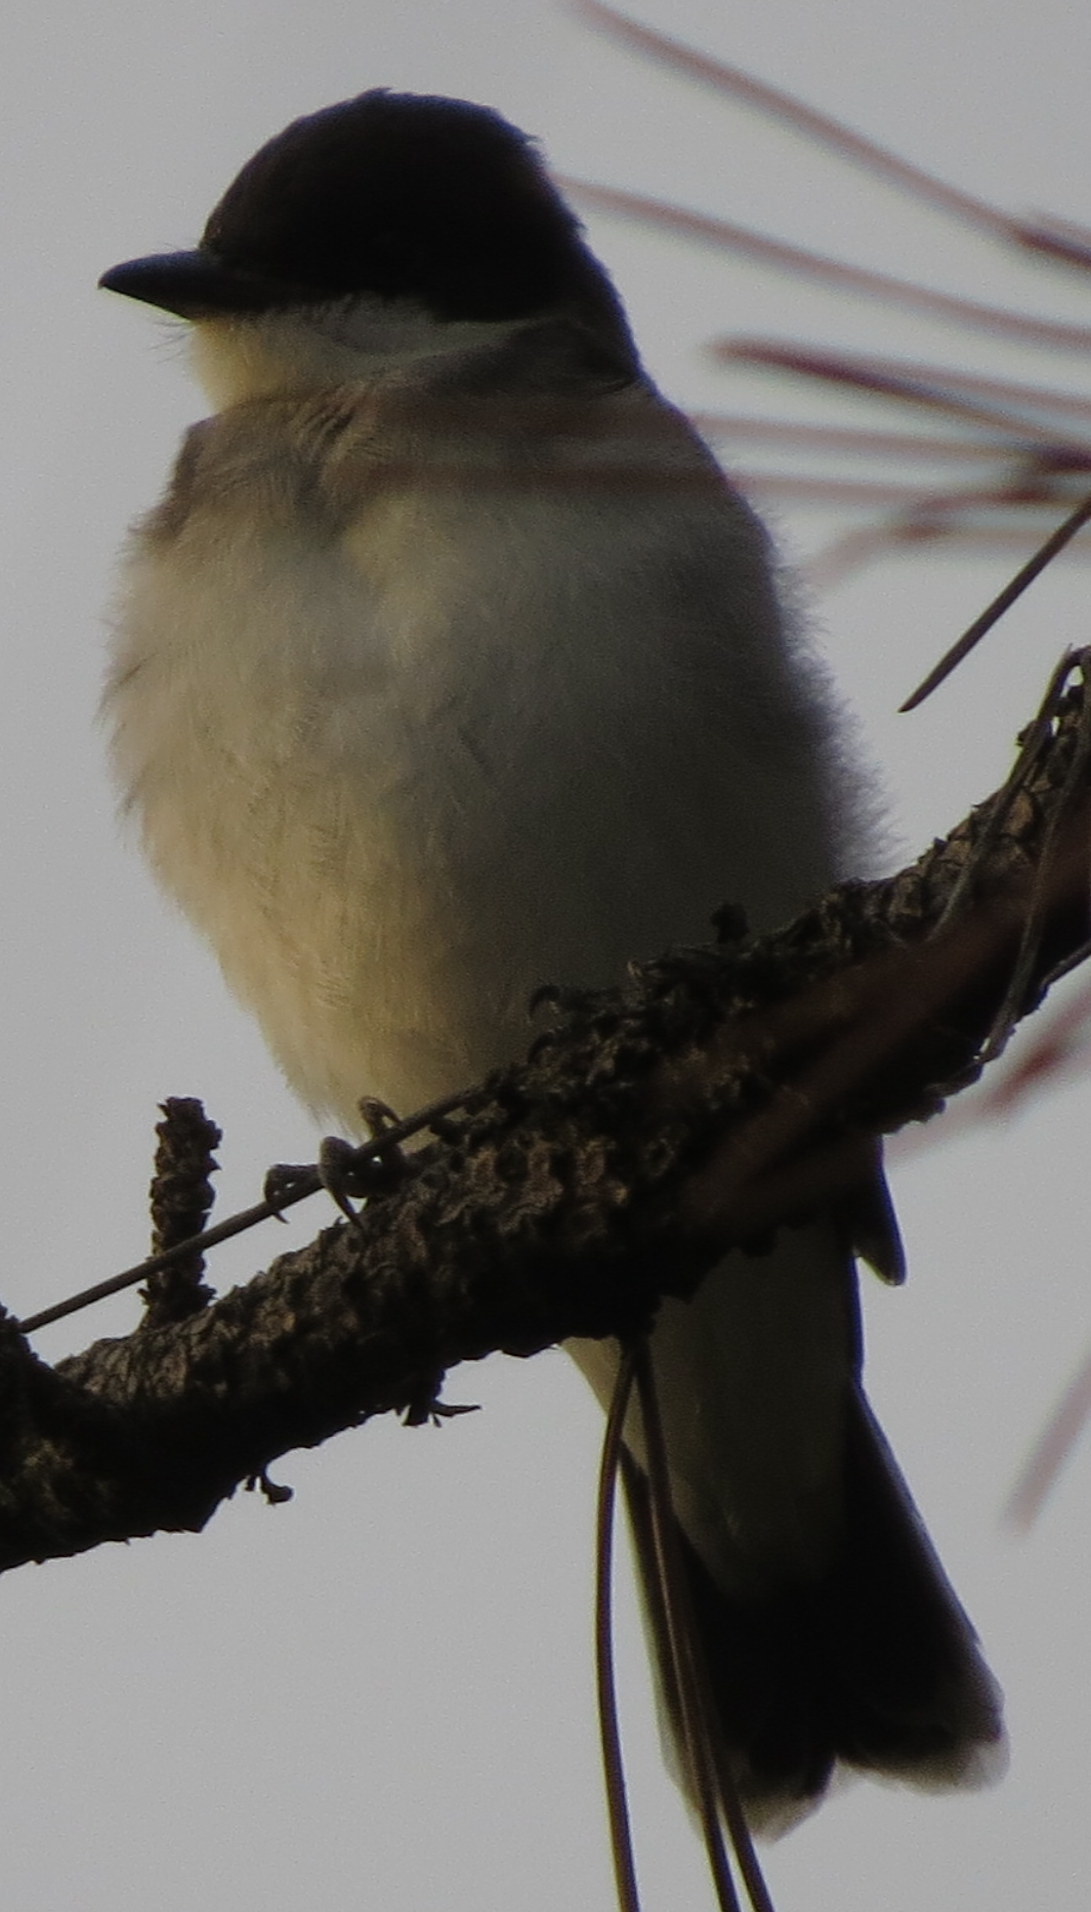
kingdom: Animalia
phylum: Chordata
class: Aves
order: Passeriformes
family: Tyrannidae
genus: Tyrannus
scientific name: Tyrannus tyrannus
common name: Eastern kingbird
